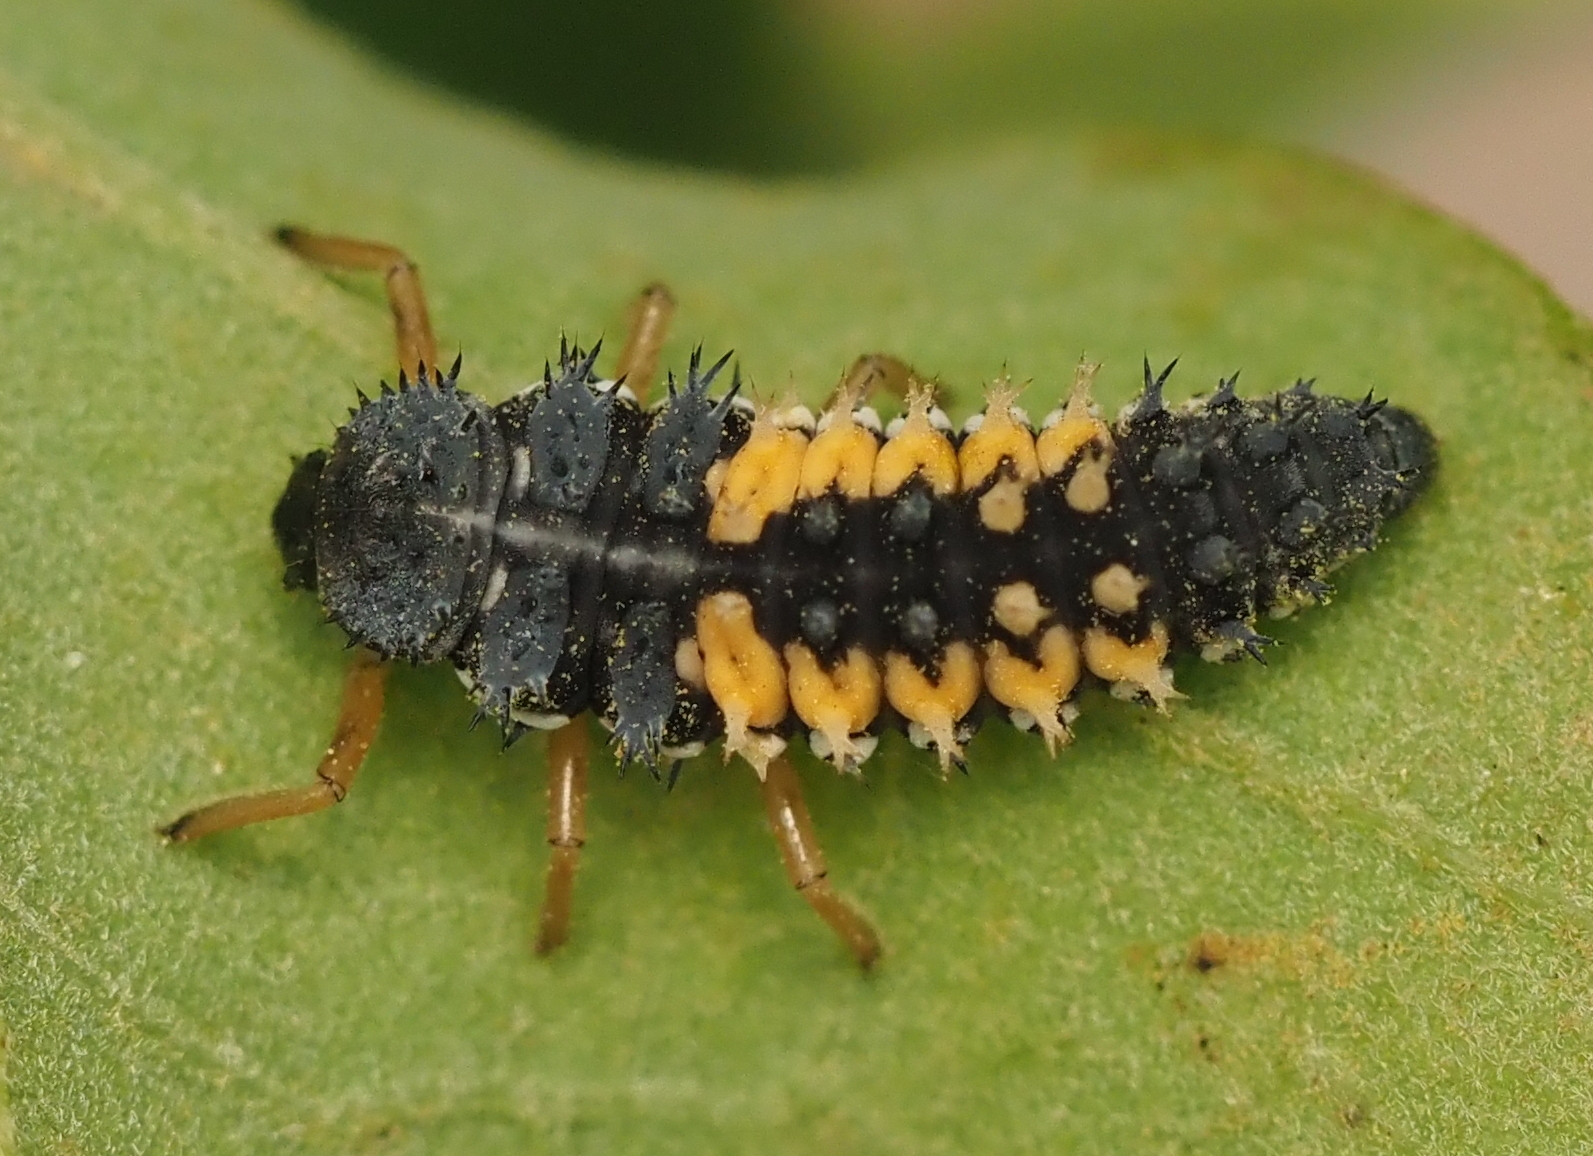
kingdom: Animalia
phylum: Arthropoda
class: Insecta
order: Coleoptera
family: Coccinellidae
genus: Harmonia
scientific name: Harmonia axyridis
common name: Harlequin ladybird
